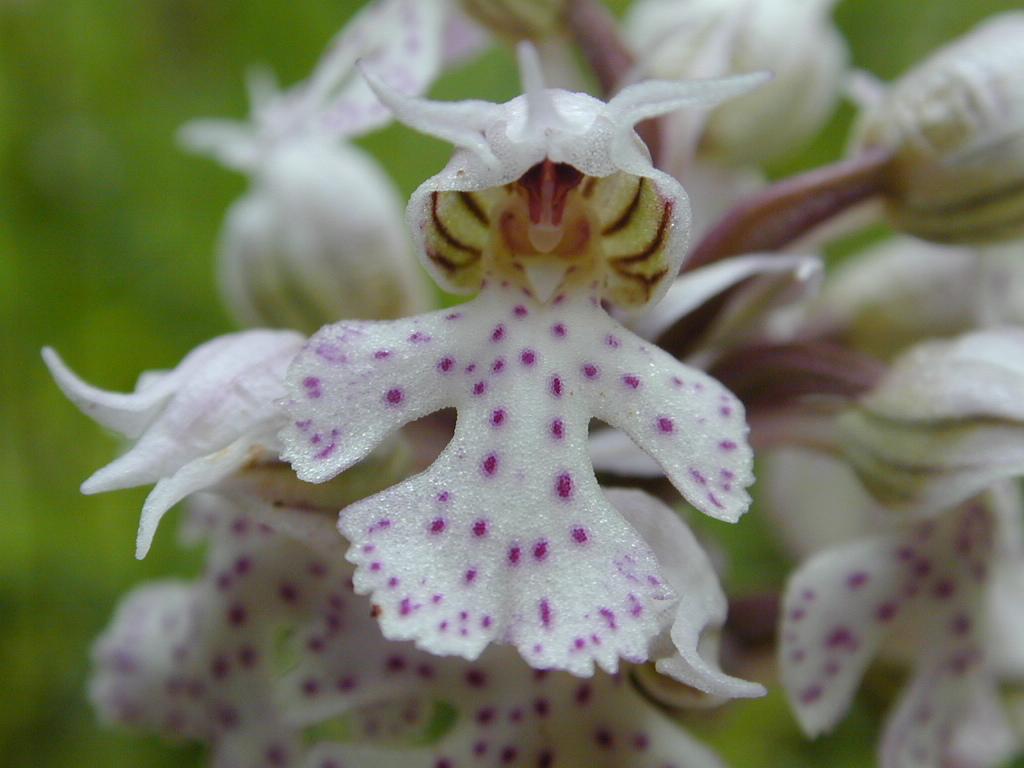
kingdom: Plantae
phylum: Tracheophyta
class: Liliopsida
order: Asparagales
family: Orchidaceae
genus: Neotinea
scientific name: Neotinea lactea
